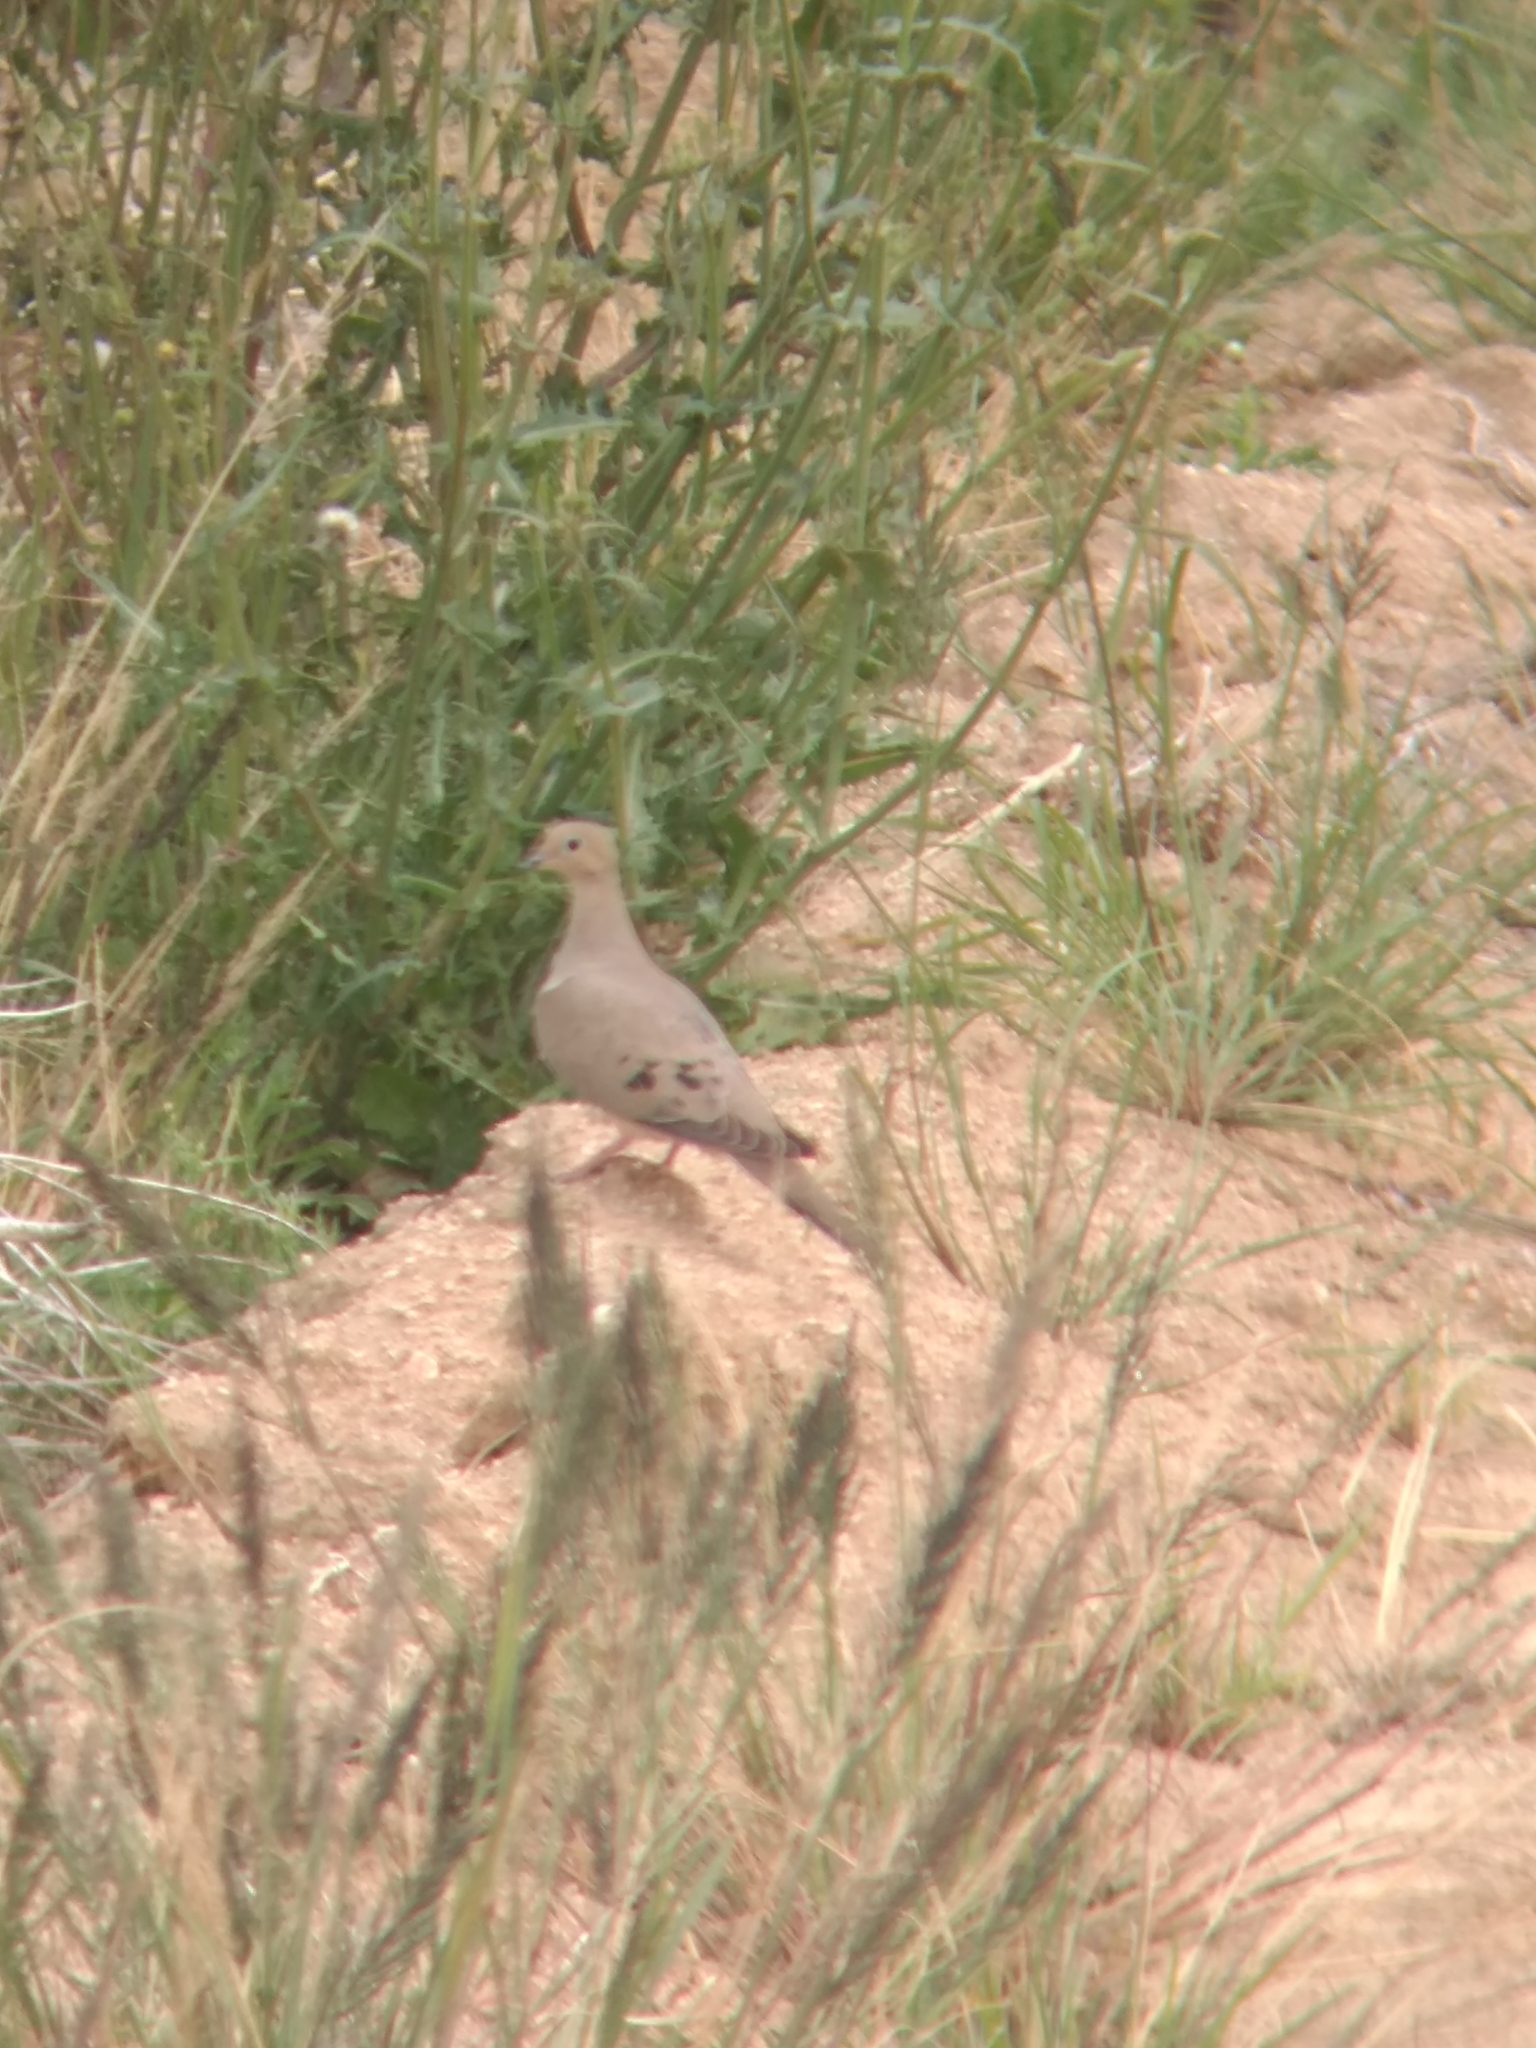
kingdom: Animalia
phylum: Chordata
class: Aves
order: Columbiformes
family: Columbidae
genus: Zenaida
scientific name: Zenaida macroura
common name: Mourning dove
